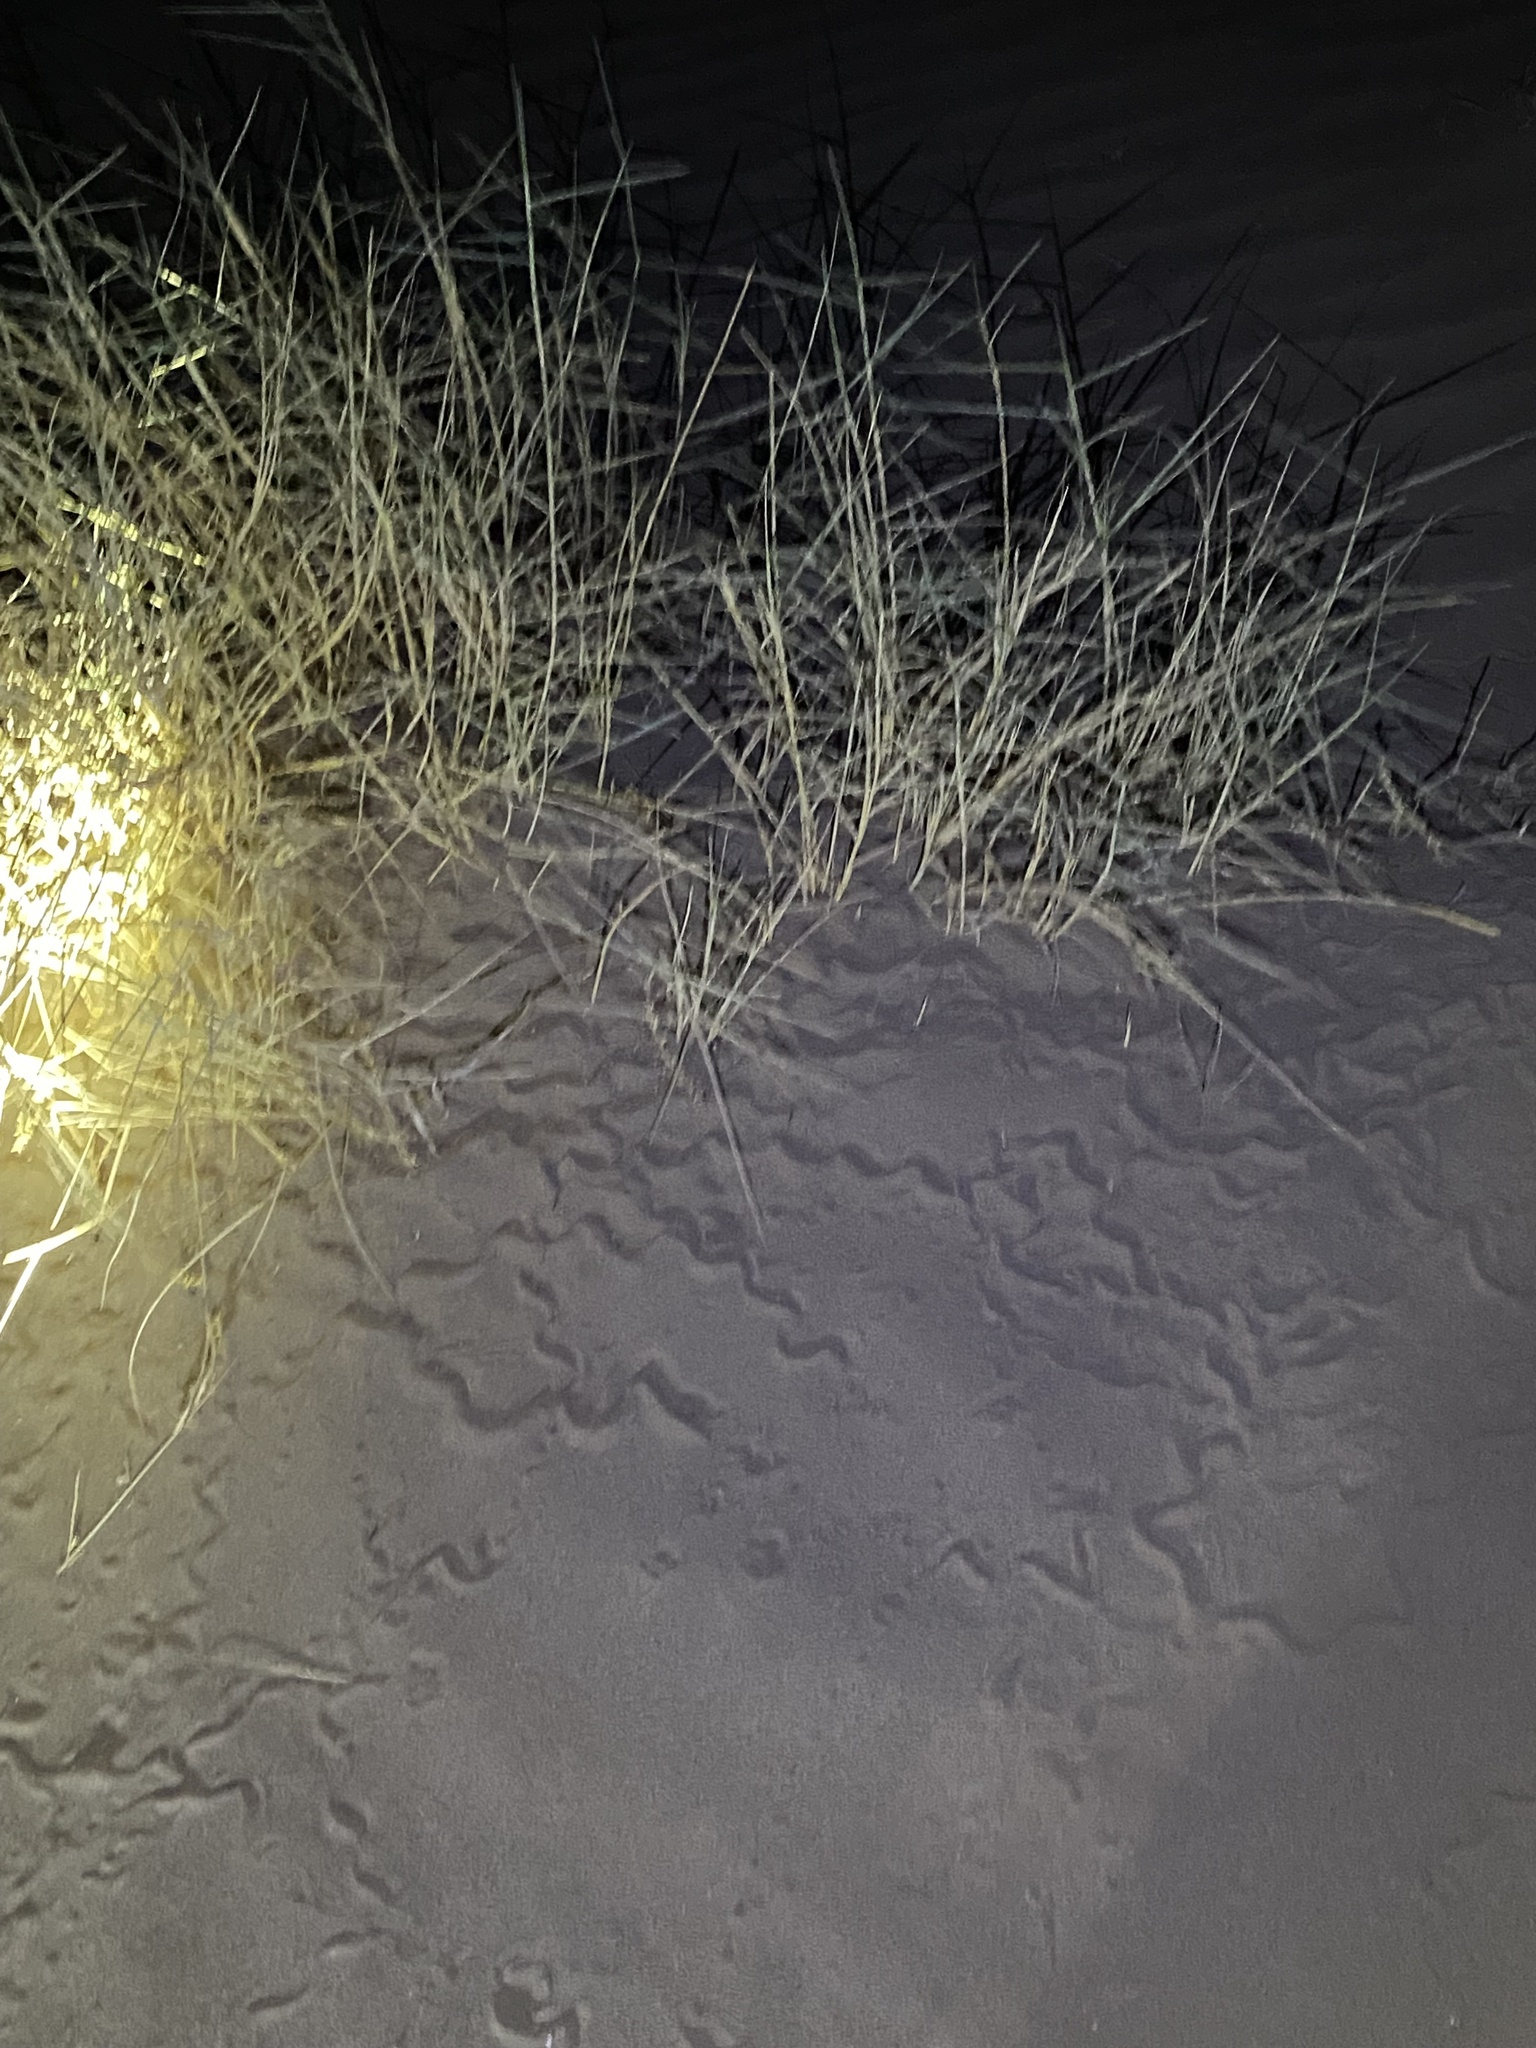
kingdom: Animalia
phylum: Chordata
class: Squamata
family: Scincidae
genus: Ophiomorus
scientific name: Ophiomorus maranjabensis
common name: Maranjab’s snake skink
